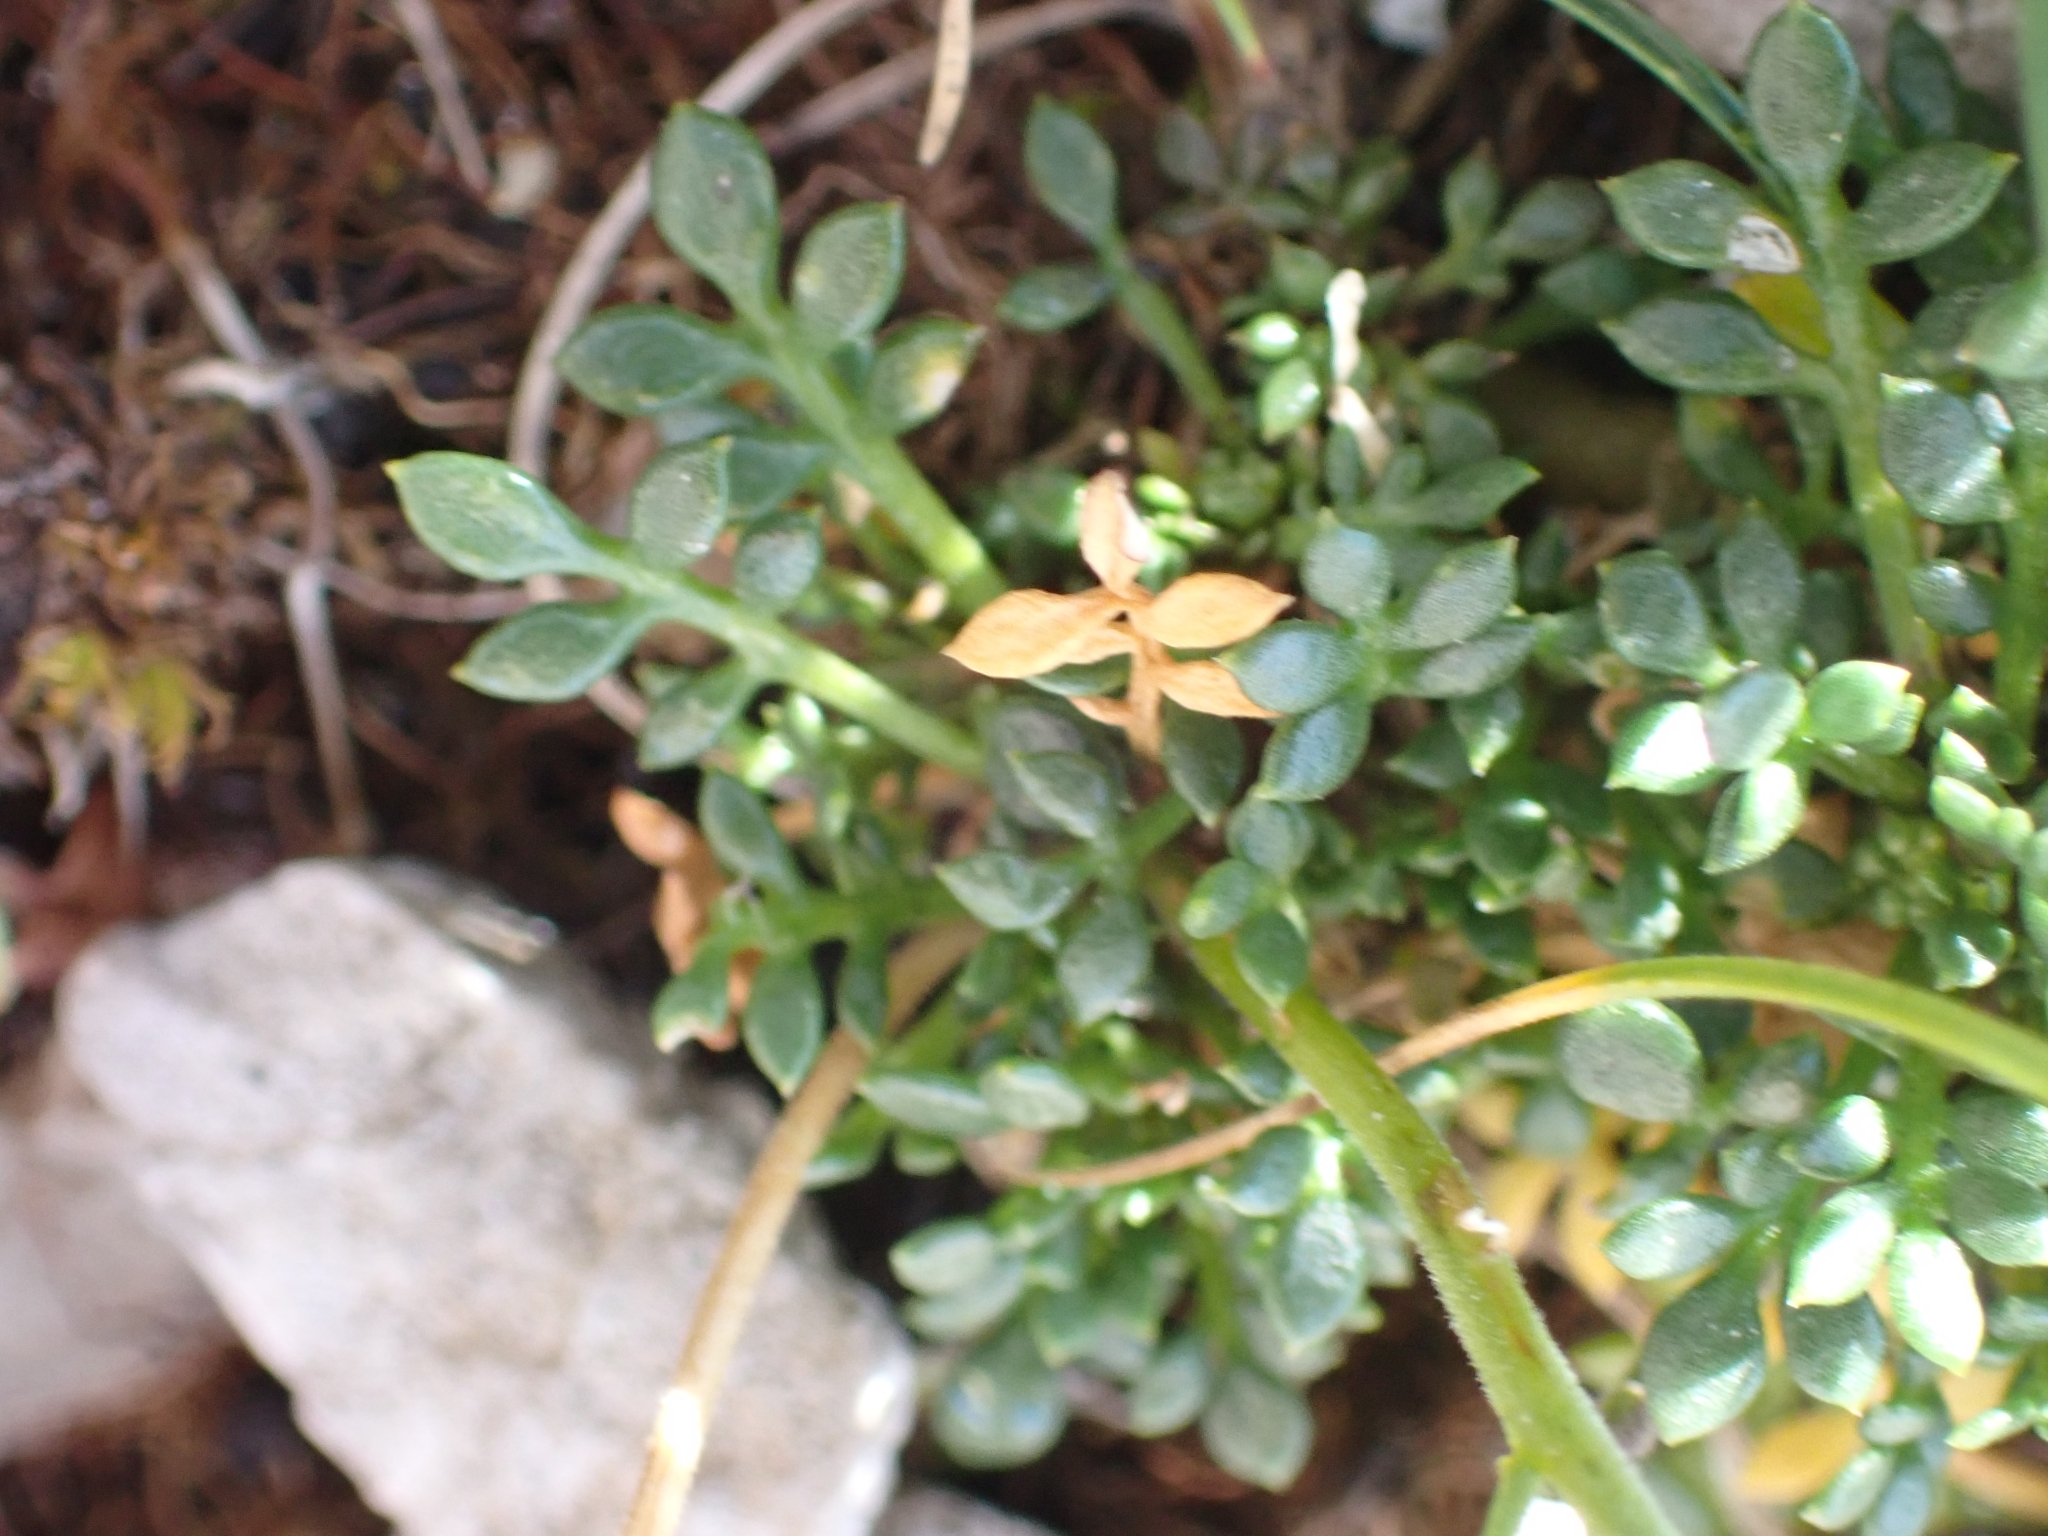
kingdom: Plantae
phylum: Tracheophyta
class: Magnoliopsida
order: Brassicales
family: Brassicaceae
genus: Hornungia
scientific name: Hornungia alpina
